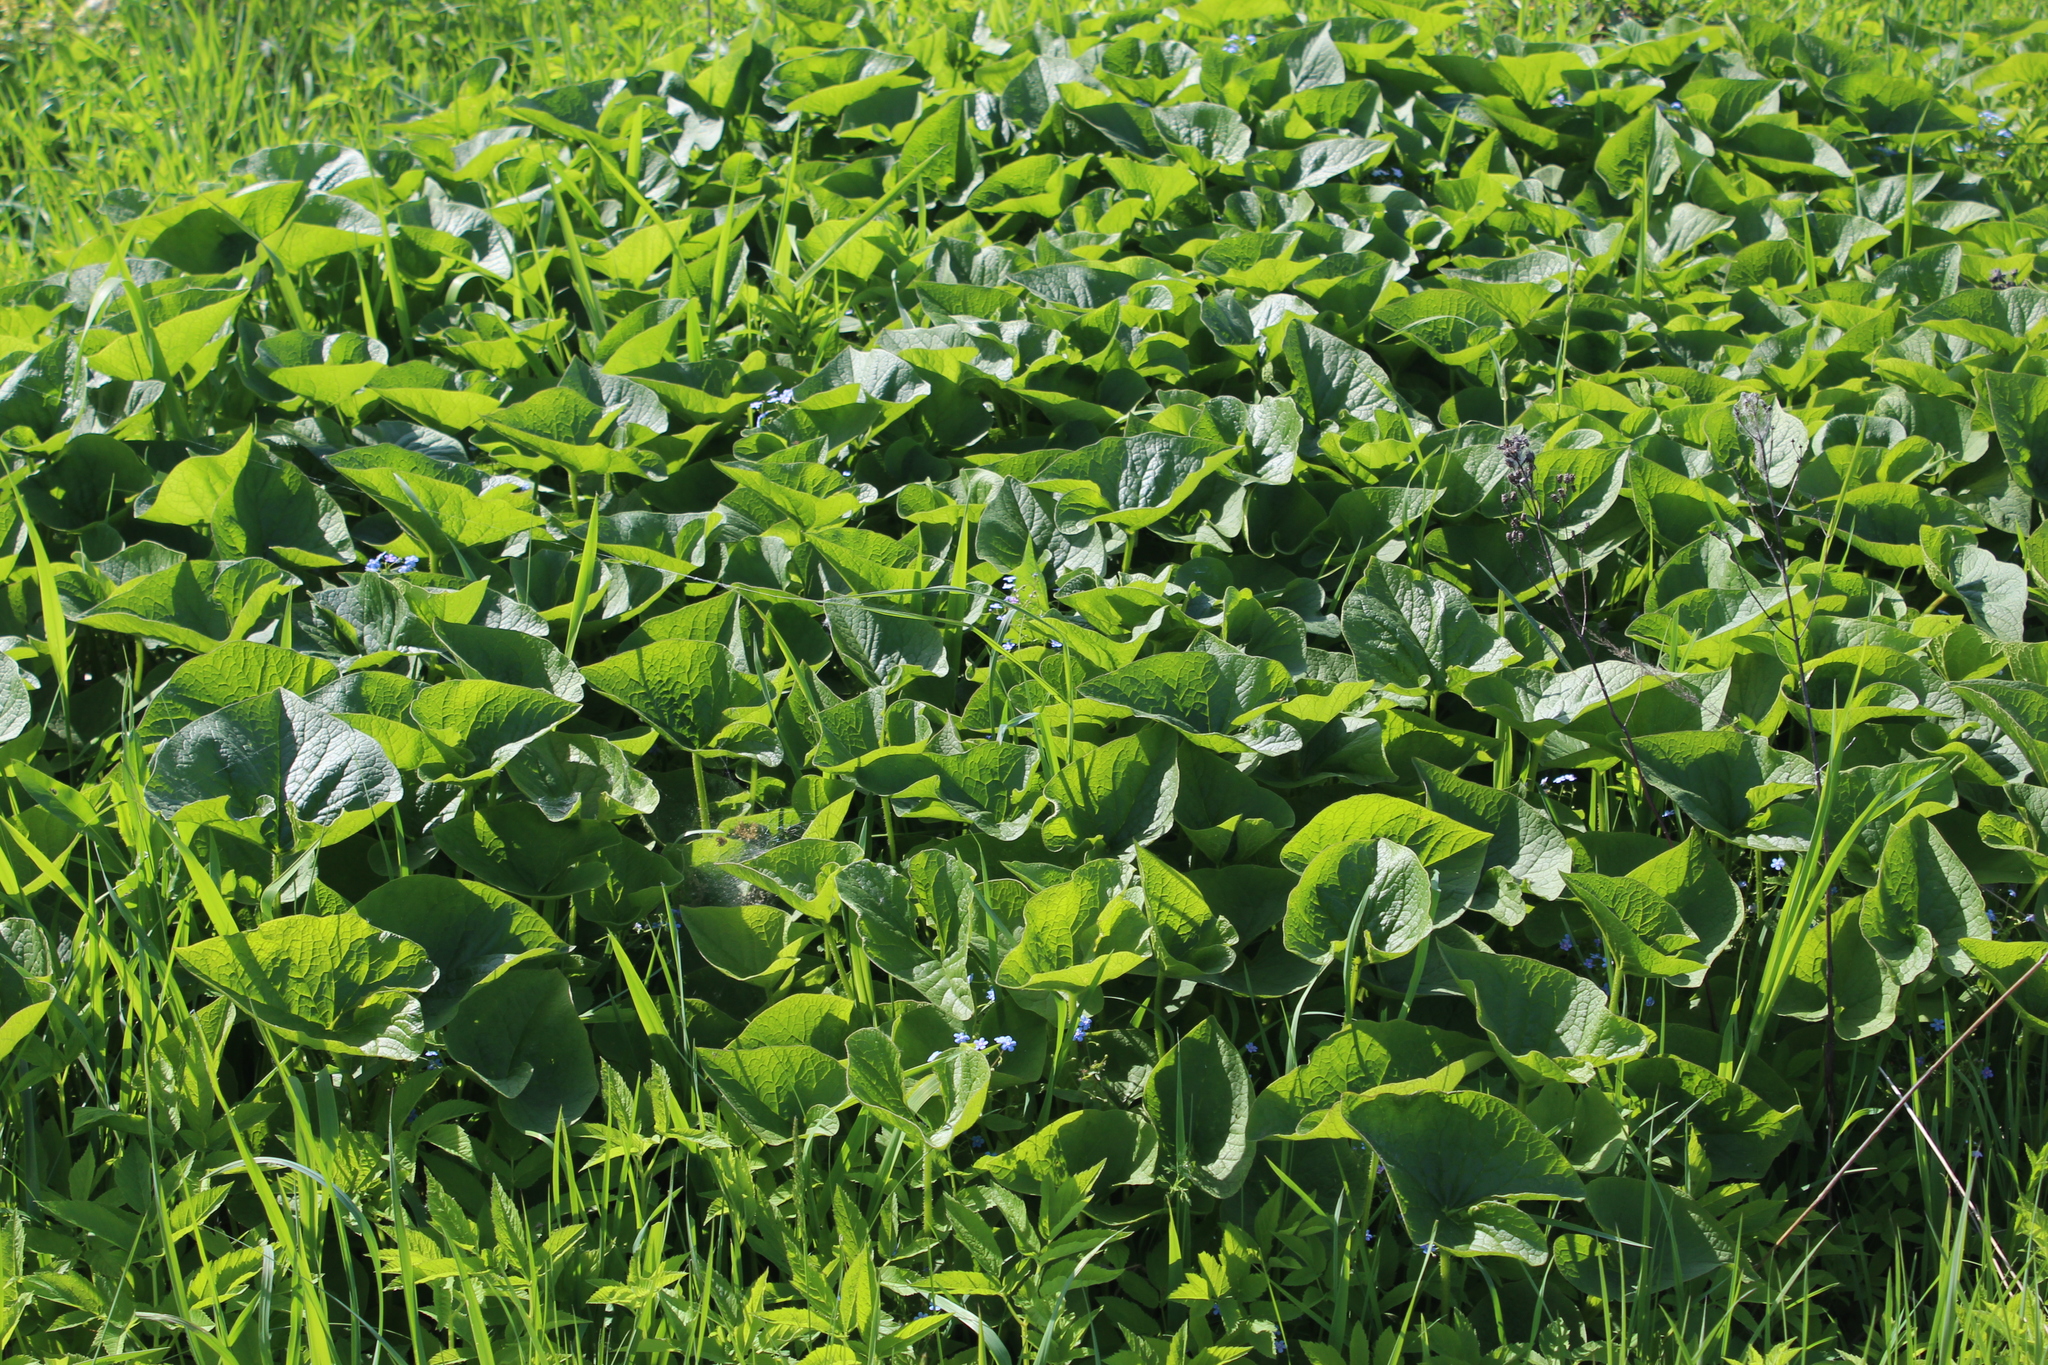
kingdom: Plantae
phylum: Tracheophyta
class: Magnoliopsida
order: Boraginales
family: Boraginaceae
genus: Brunnera
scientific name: Brunnera sibirica
